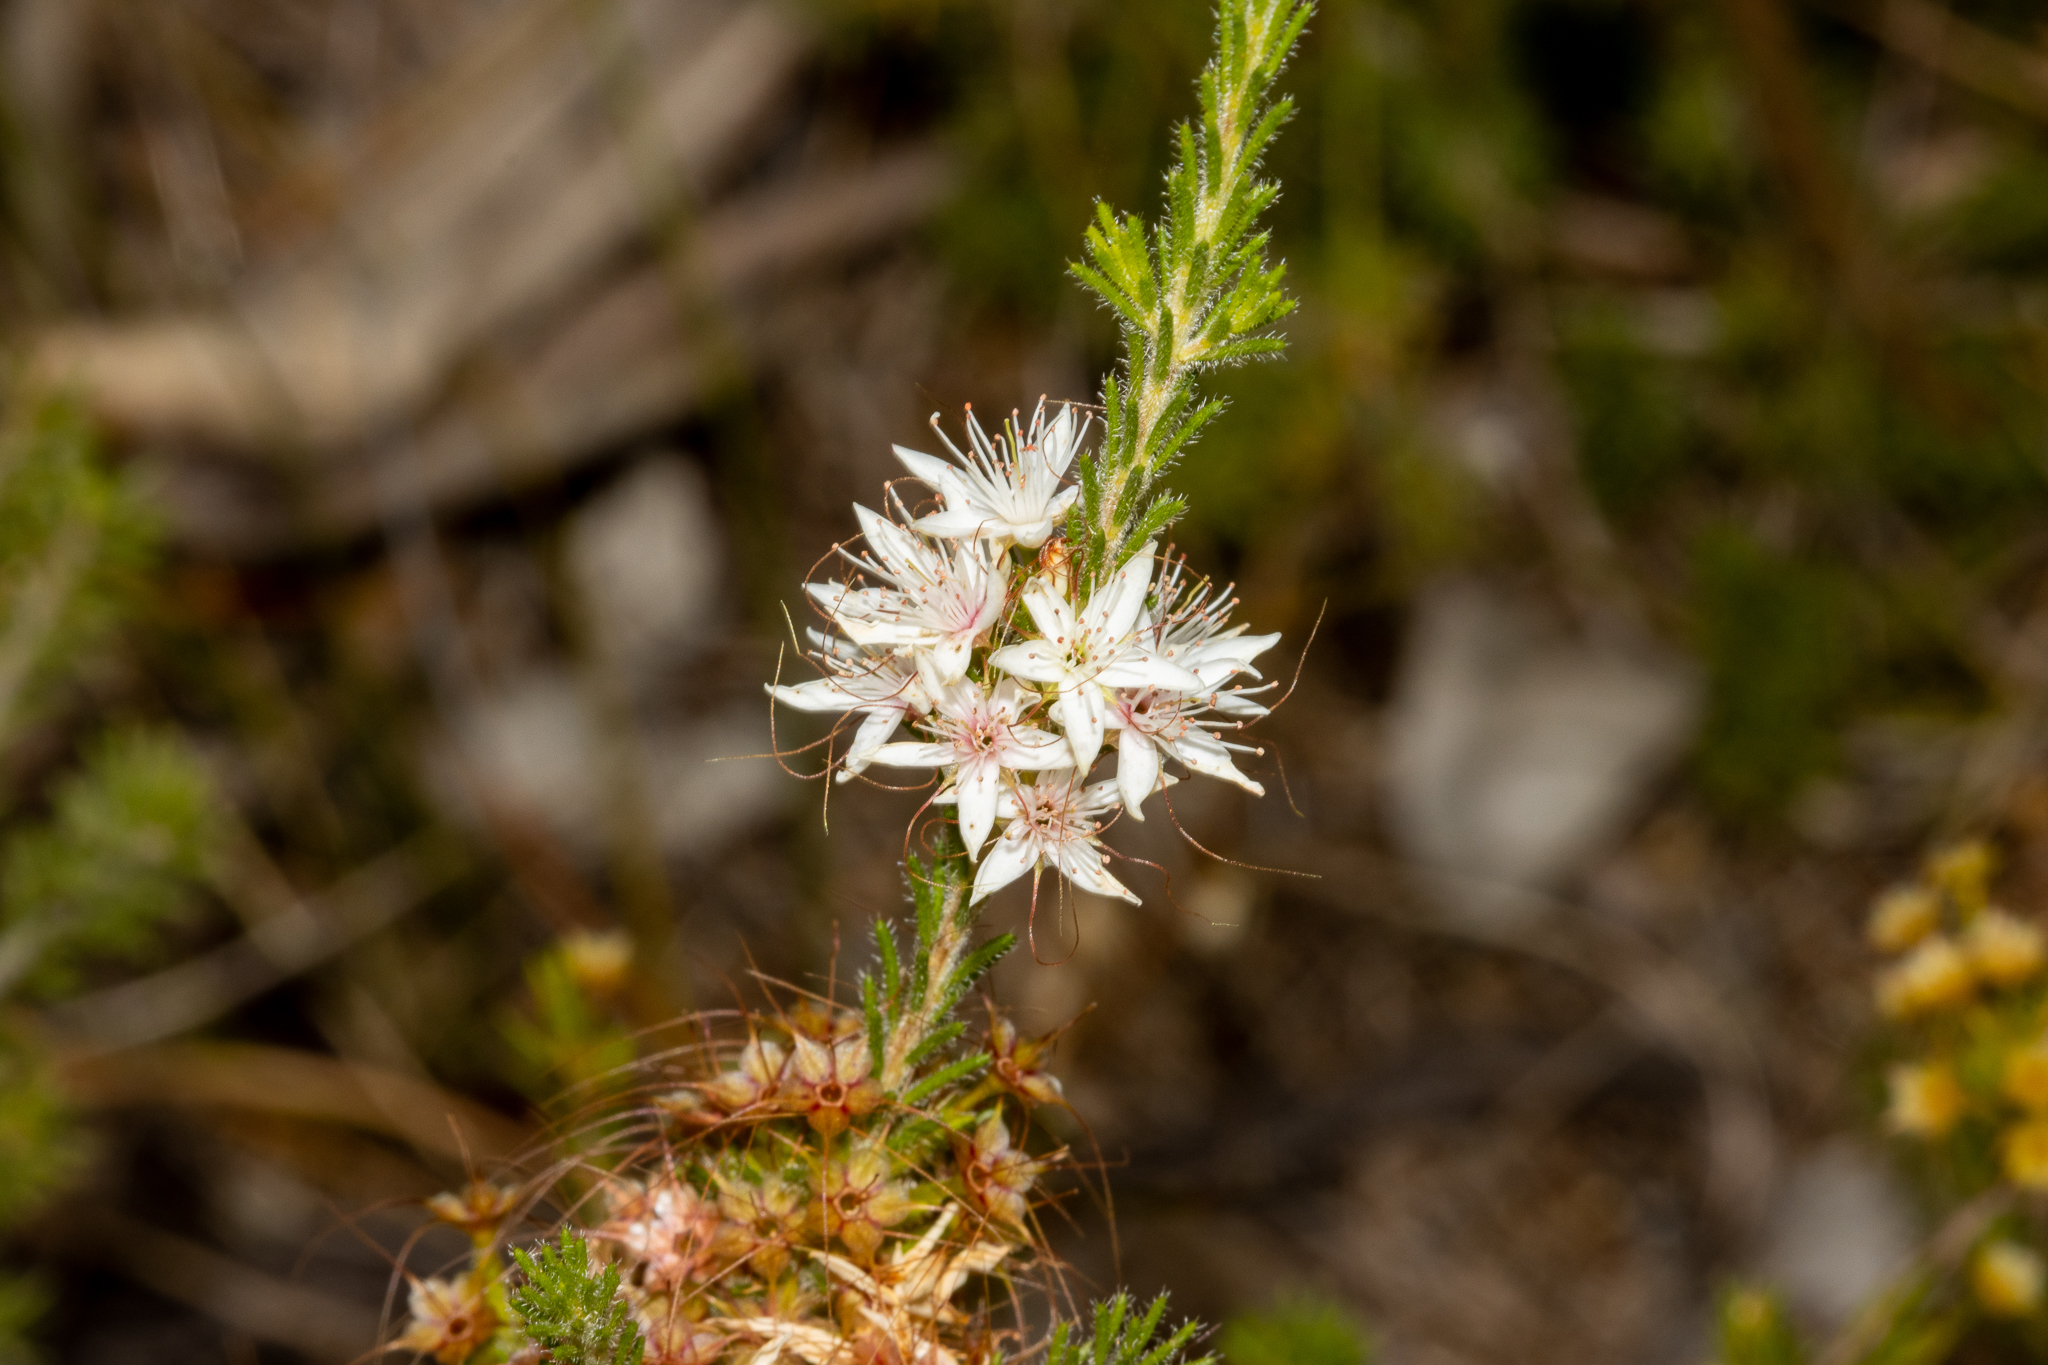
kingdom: Plantae
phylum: Tracheophyta
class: Magnoliopsida
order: Myrtales
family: Myrtaceae
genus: Calytrix
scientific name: Calytrix tetragona
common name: Common fringe myrtle
